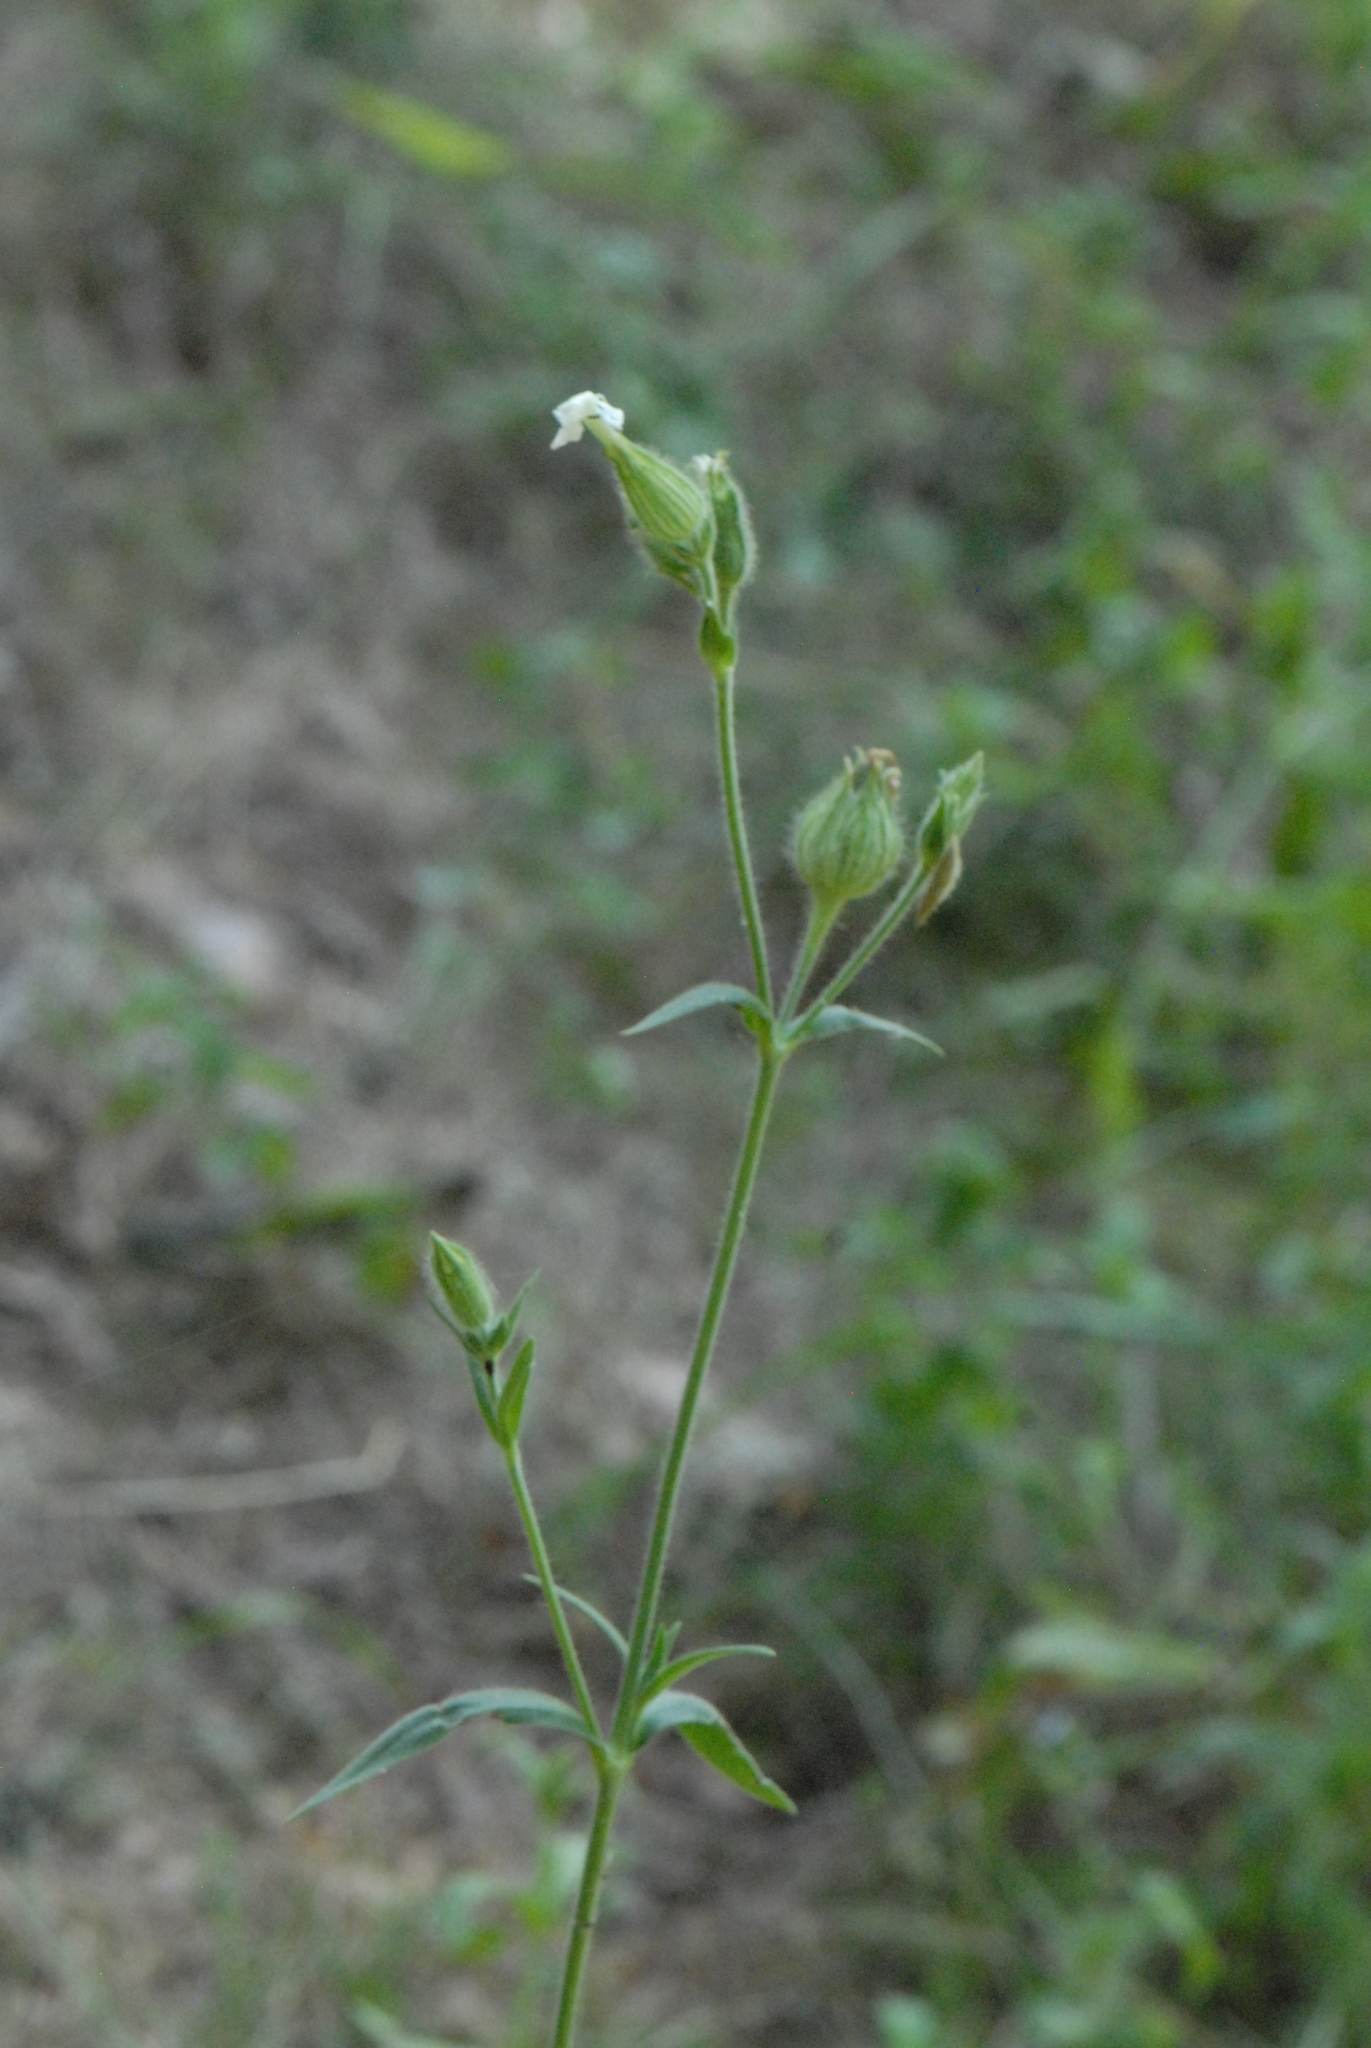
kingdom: Plantae
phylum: Tracheophyta
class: Magnoliopsida
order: Caryophyllales
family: Caryophyllaceae
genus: Silene
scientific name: Silene latifolia
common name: White campion
